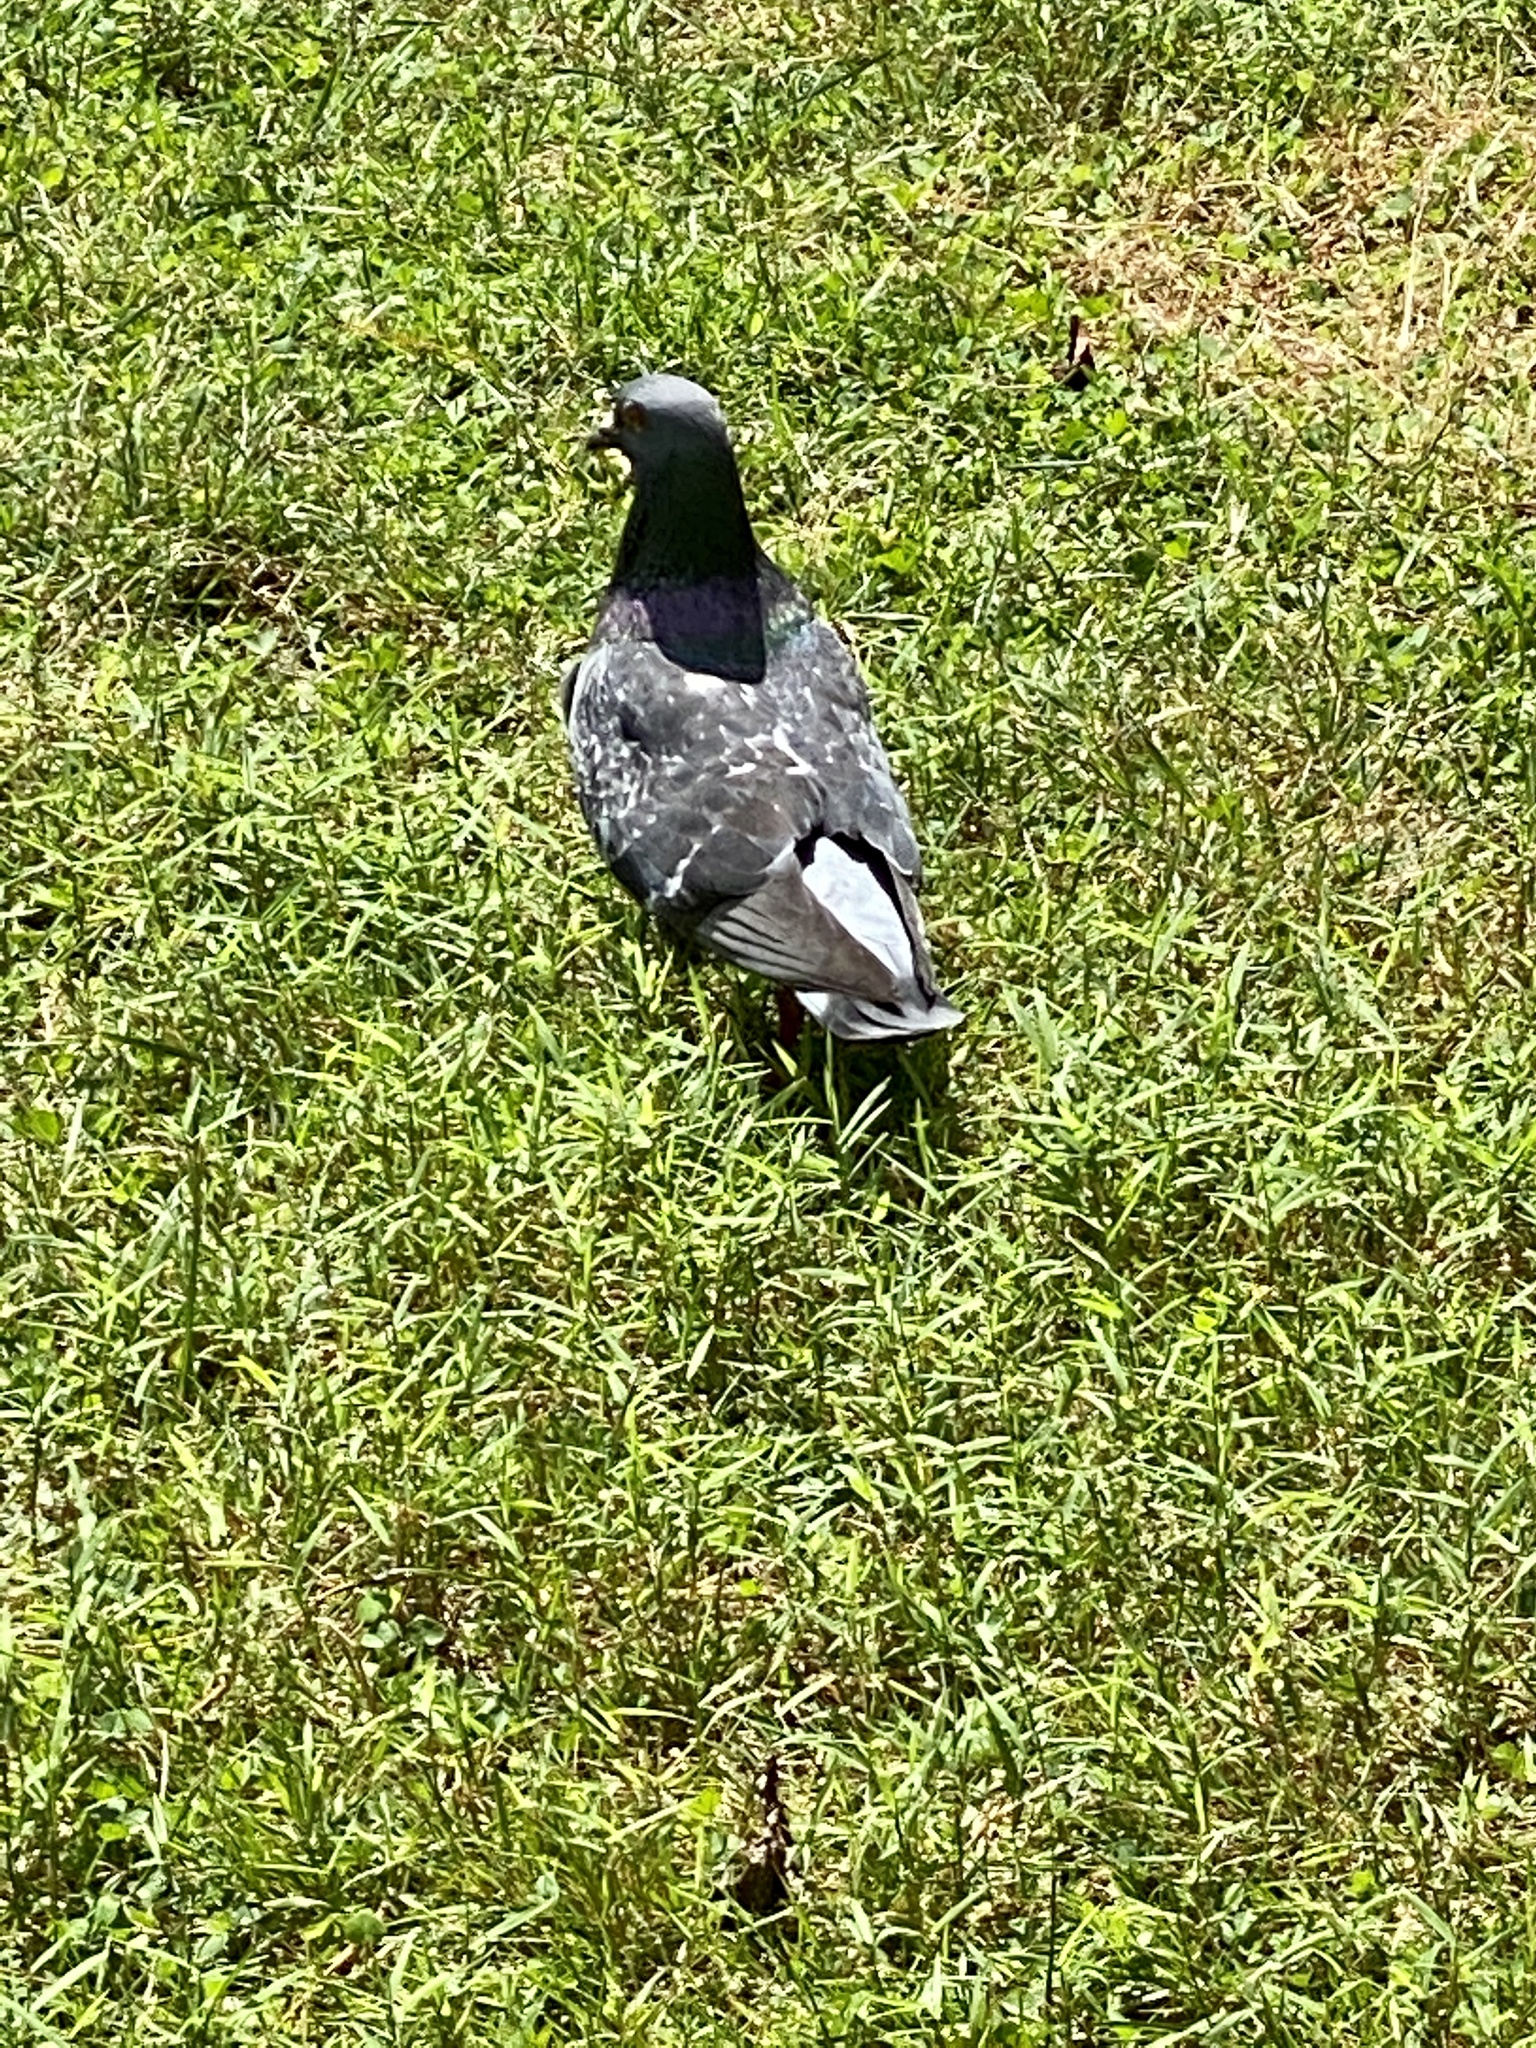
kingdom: Animalia
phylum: Chordata
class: Aves
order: Columbiformes
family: Columbidae
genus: Columba
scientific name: Columba livia
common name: Rock pigeon
